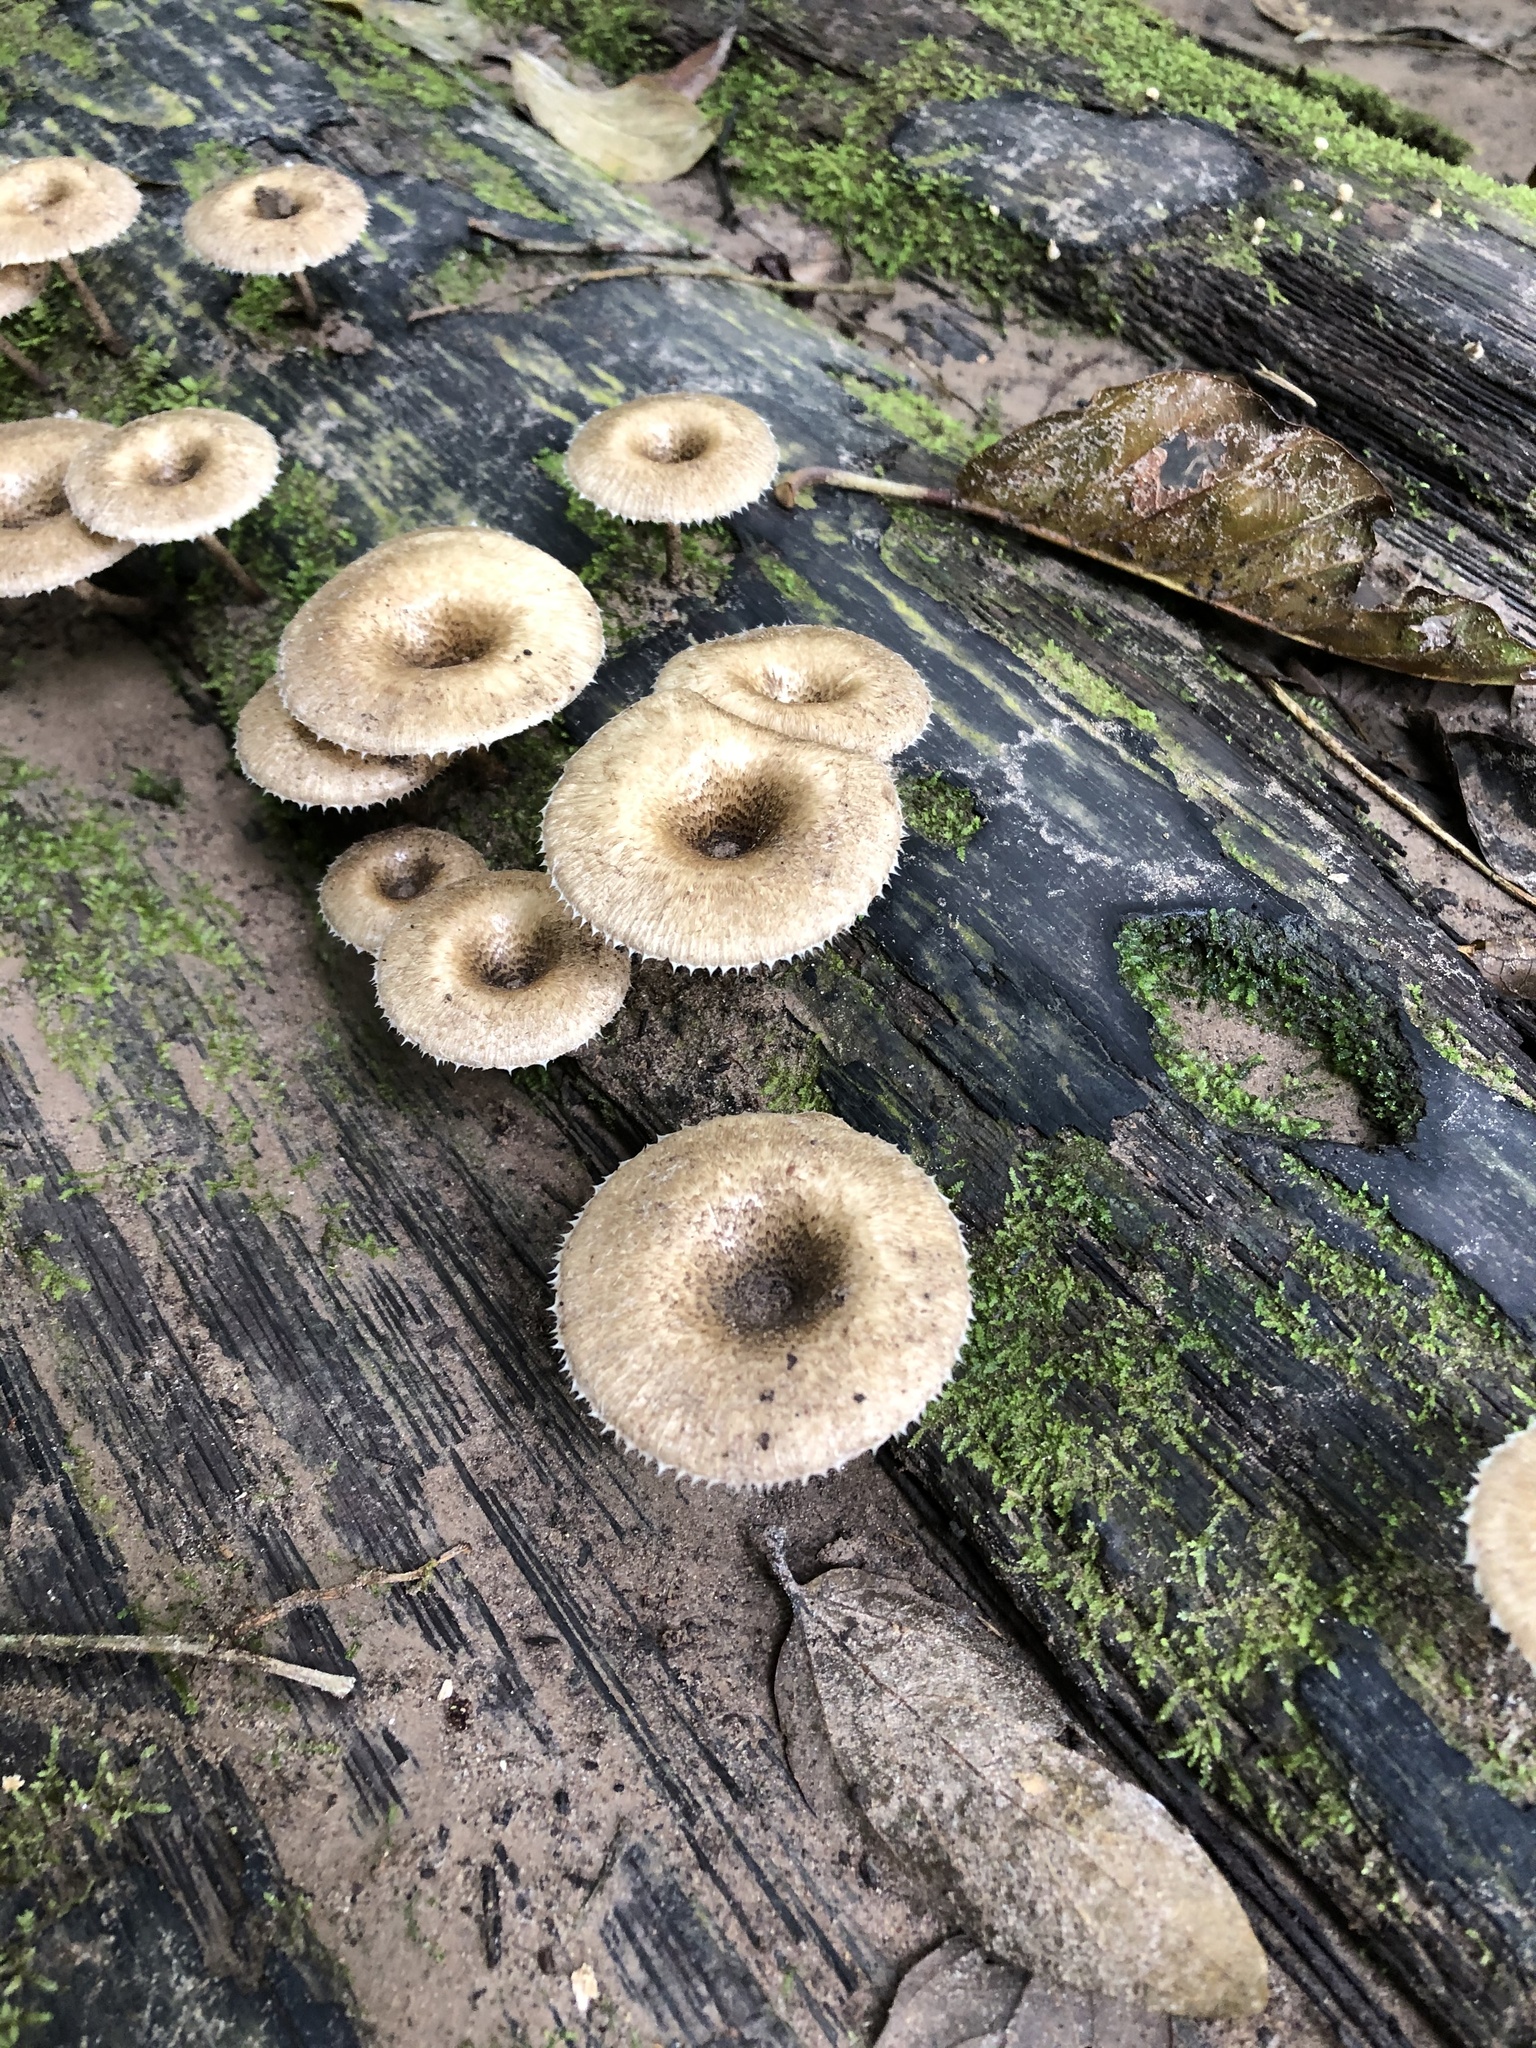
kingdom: Fungi
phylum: Basidiomycota
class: Agaricomycetes
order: Polyporales
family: Polyporaceae
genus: Lentinus
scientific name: Lentinus crinitus
